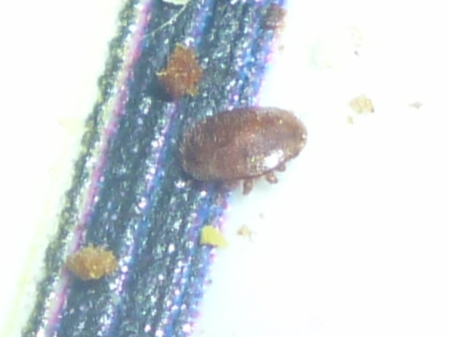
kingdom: Animalia
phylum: Arthropoda
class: Arachnida
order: Mesostigmata
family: Varroidae
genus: Varroa
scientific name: Varroa destructor
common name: Honey bee mite
